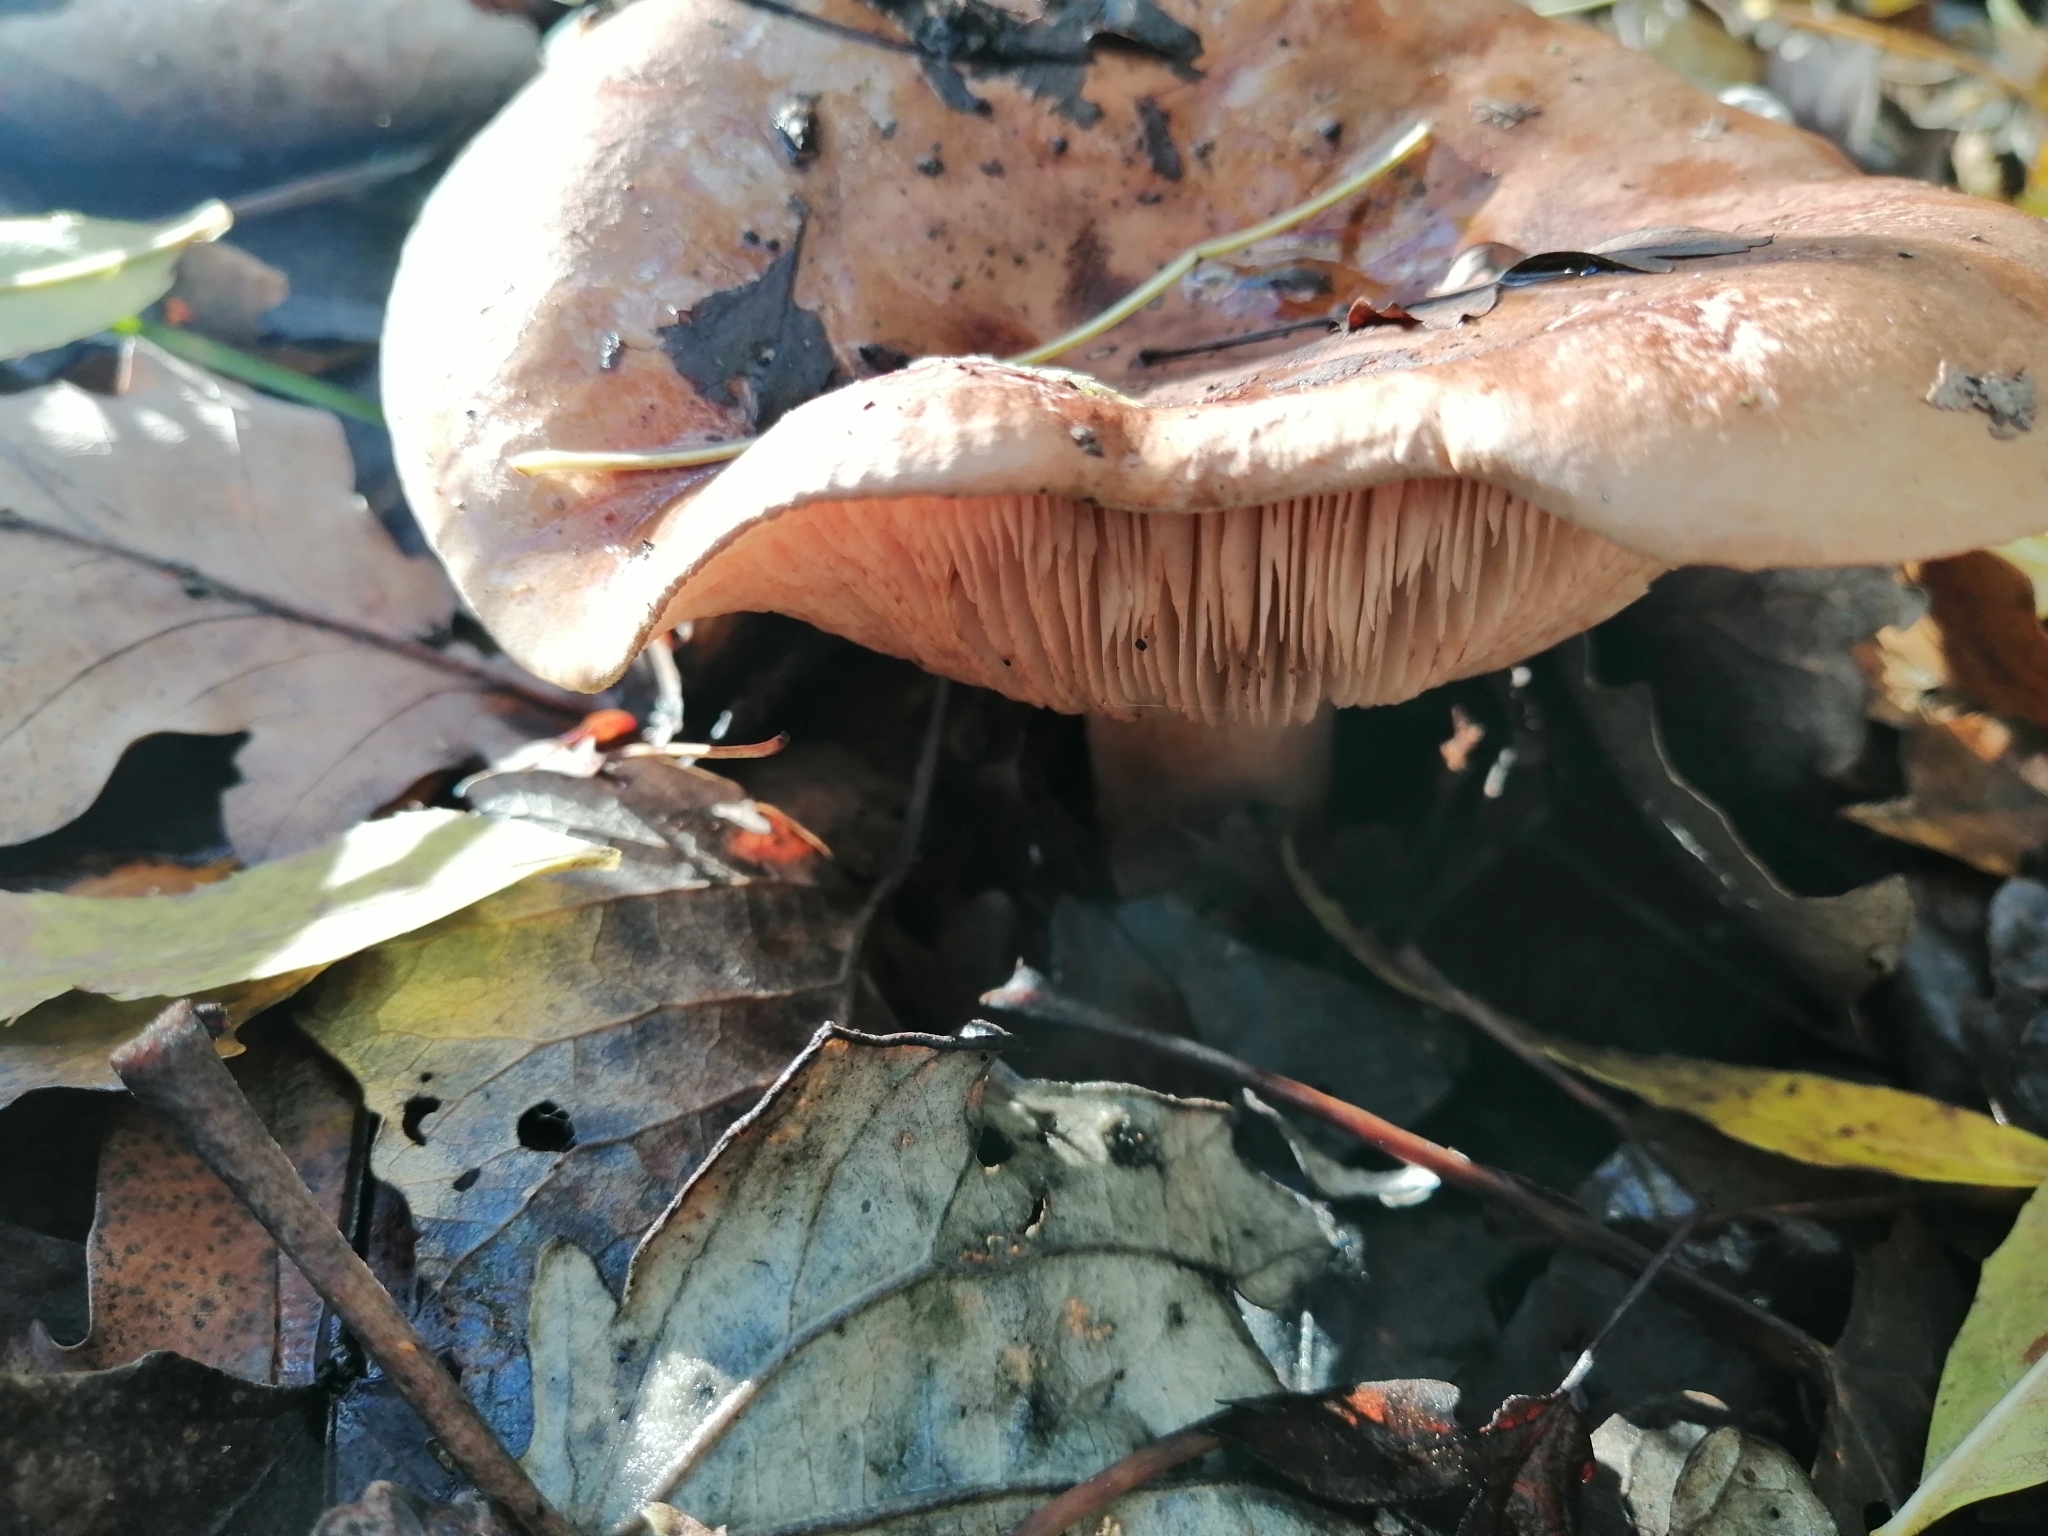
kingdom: Fungi
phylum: Basidiomycota
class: Agaricomycetes
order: Agaricales
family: Tricholomataceae
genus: Tricholoma
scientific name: Tricholoma populinum
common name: Poplar knight
